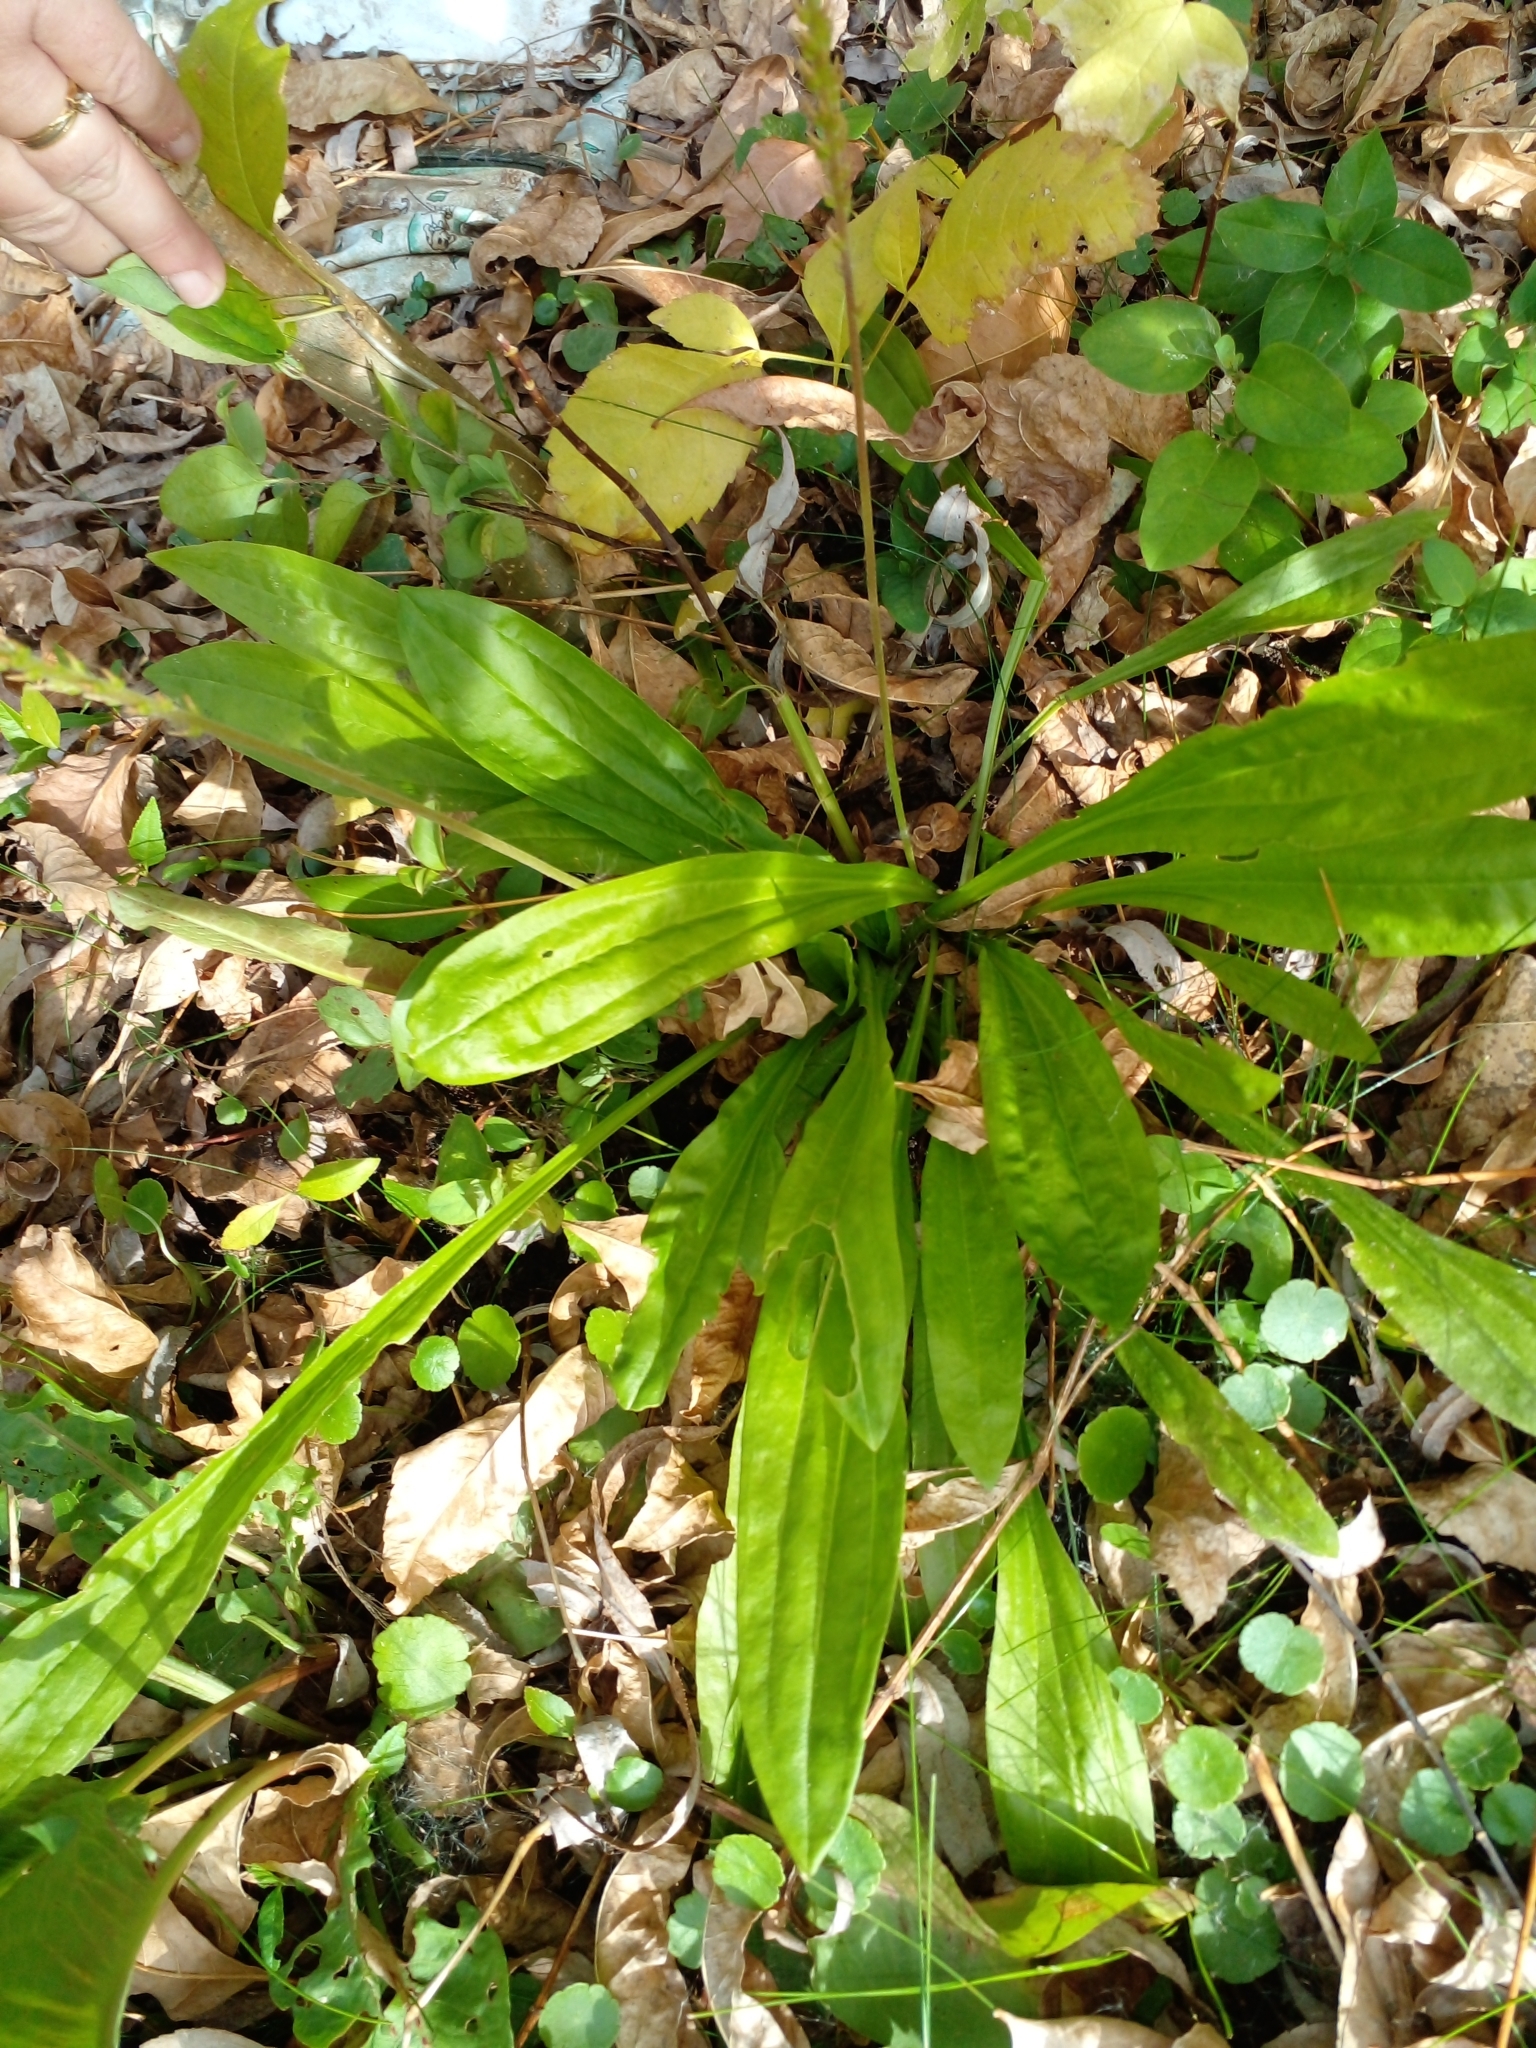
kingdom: Plantae
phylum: Tracheophyta
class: Magnoliopsida
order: Lamiales
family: Plantaginaceae
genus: Plantago
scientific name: Plantago australis
